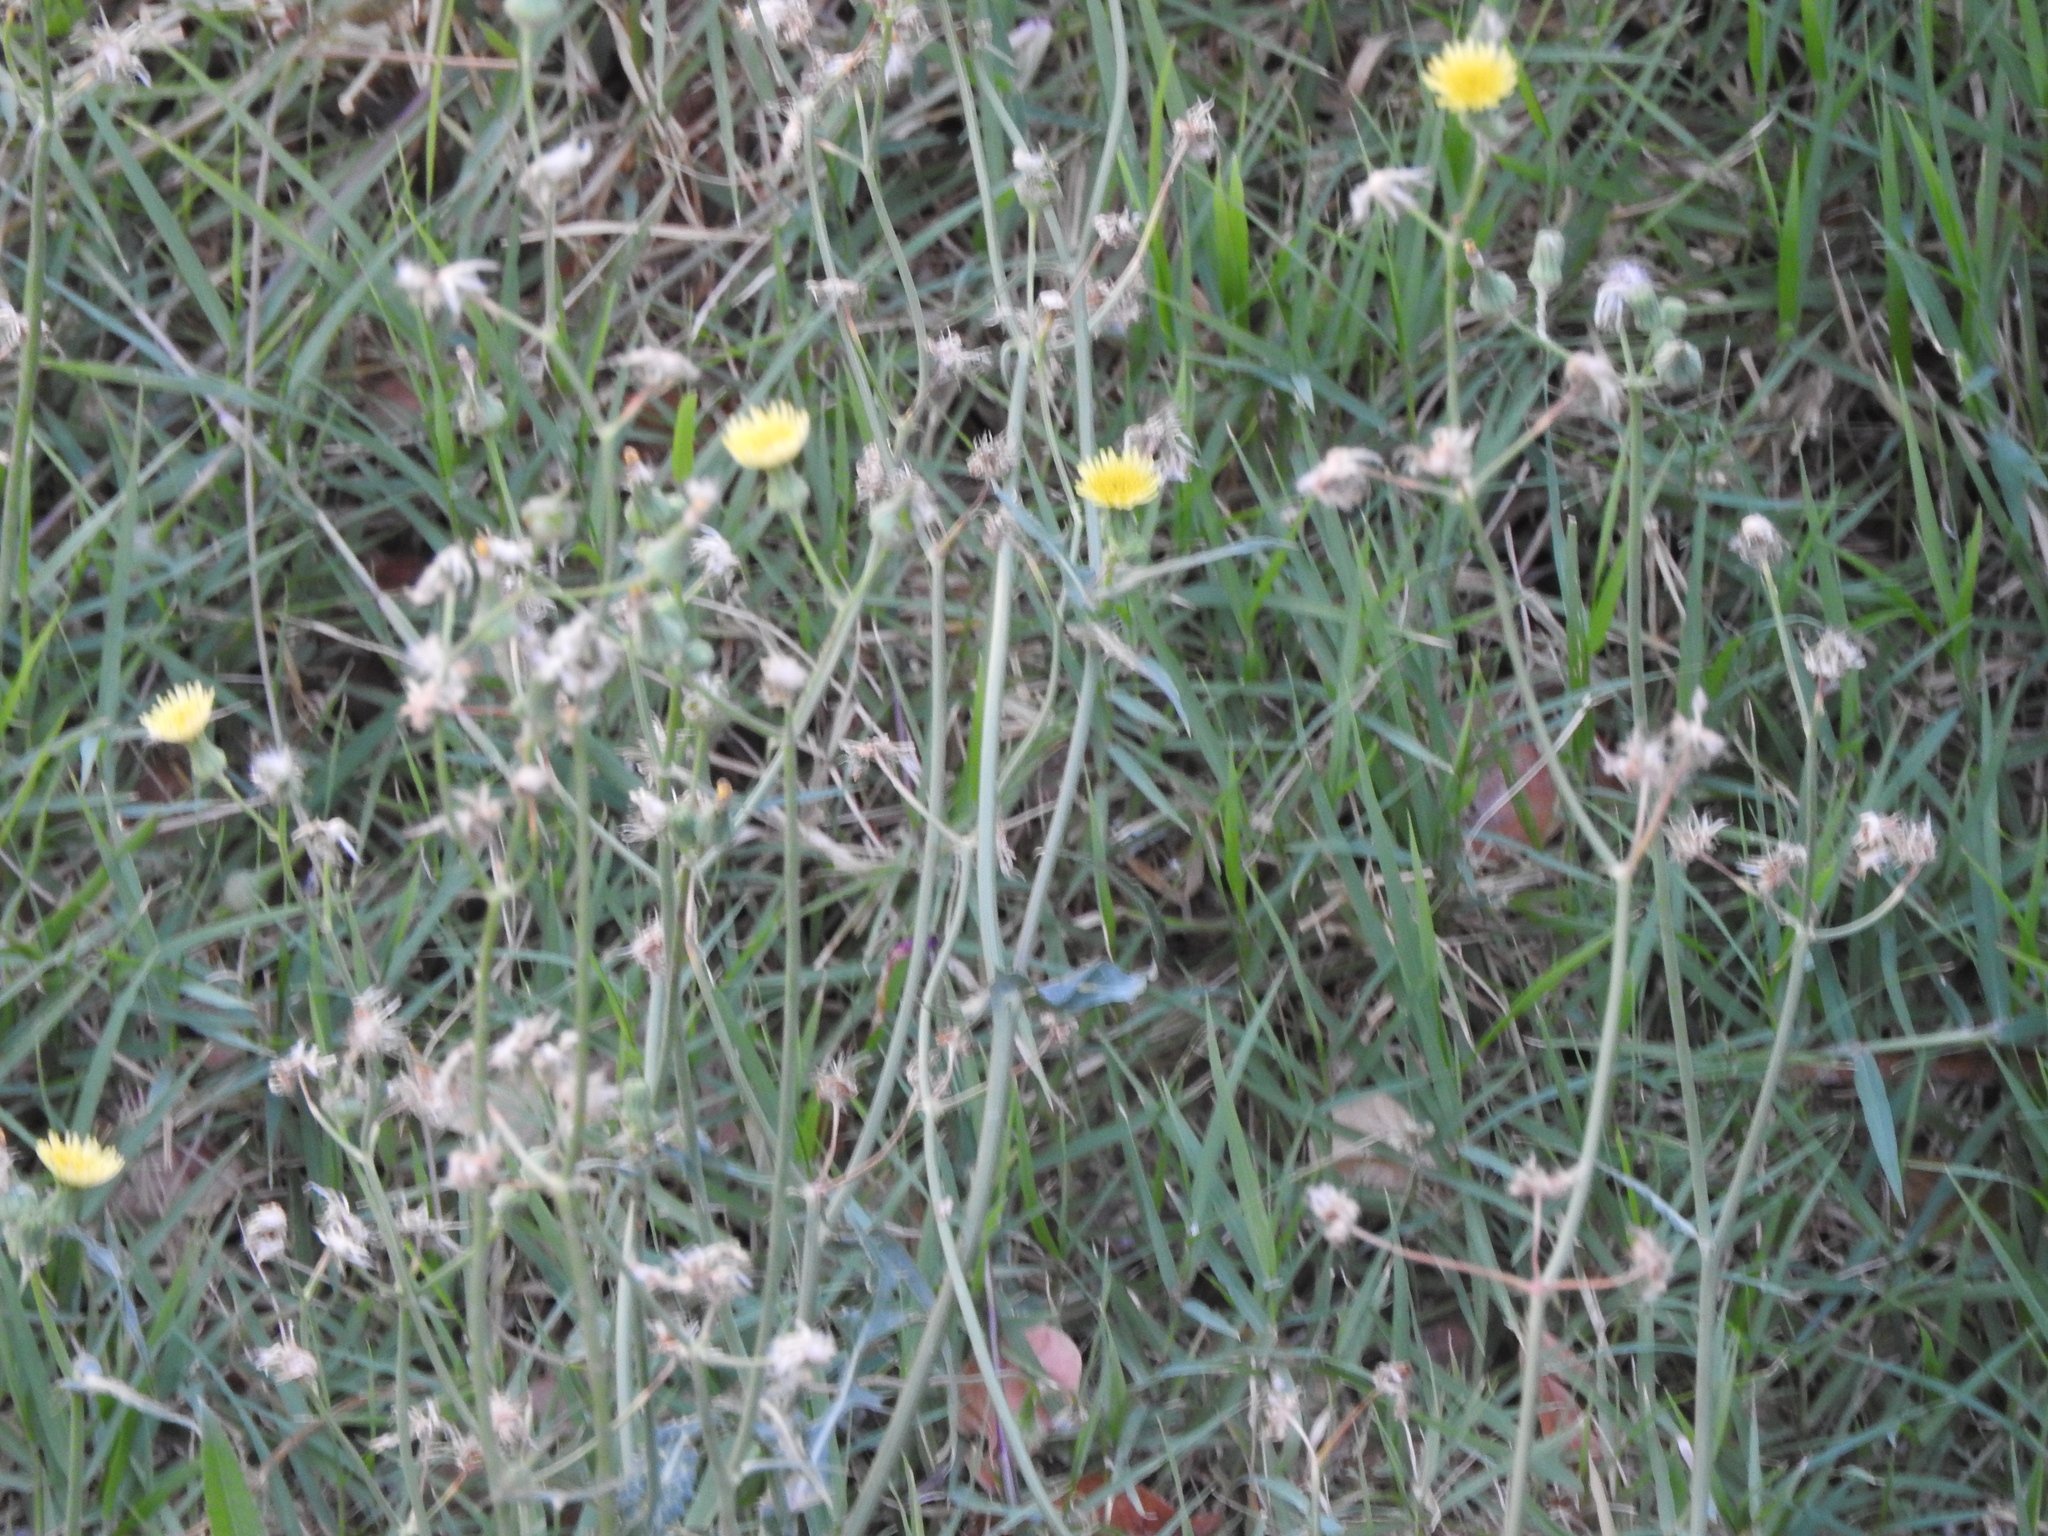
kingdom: Plantae
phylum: Tracheophyta
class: Magnoliopsida
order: Asterales
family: Asteraceae
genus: Sonchus
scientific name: Sonchus oleraceus
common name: Common sowthistle
